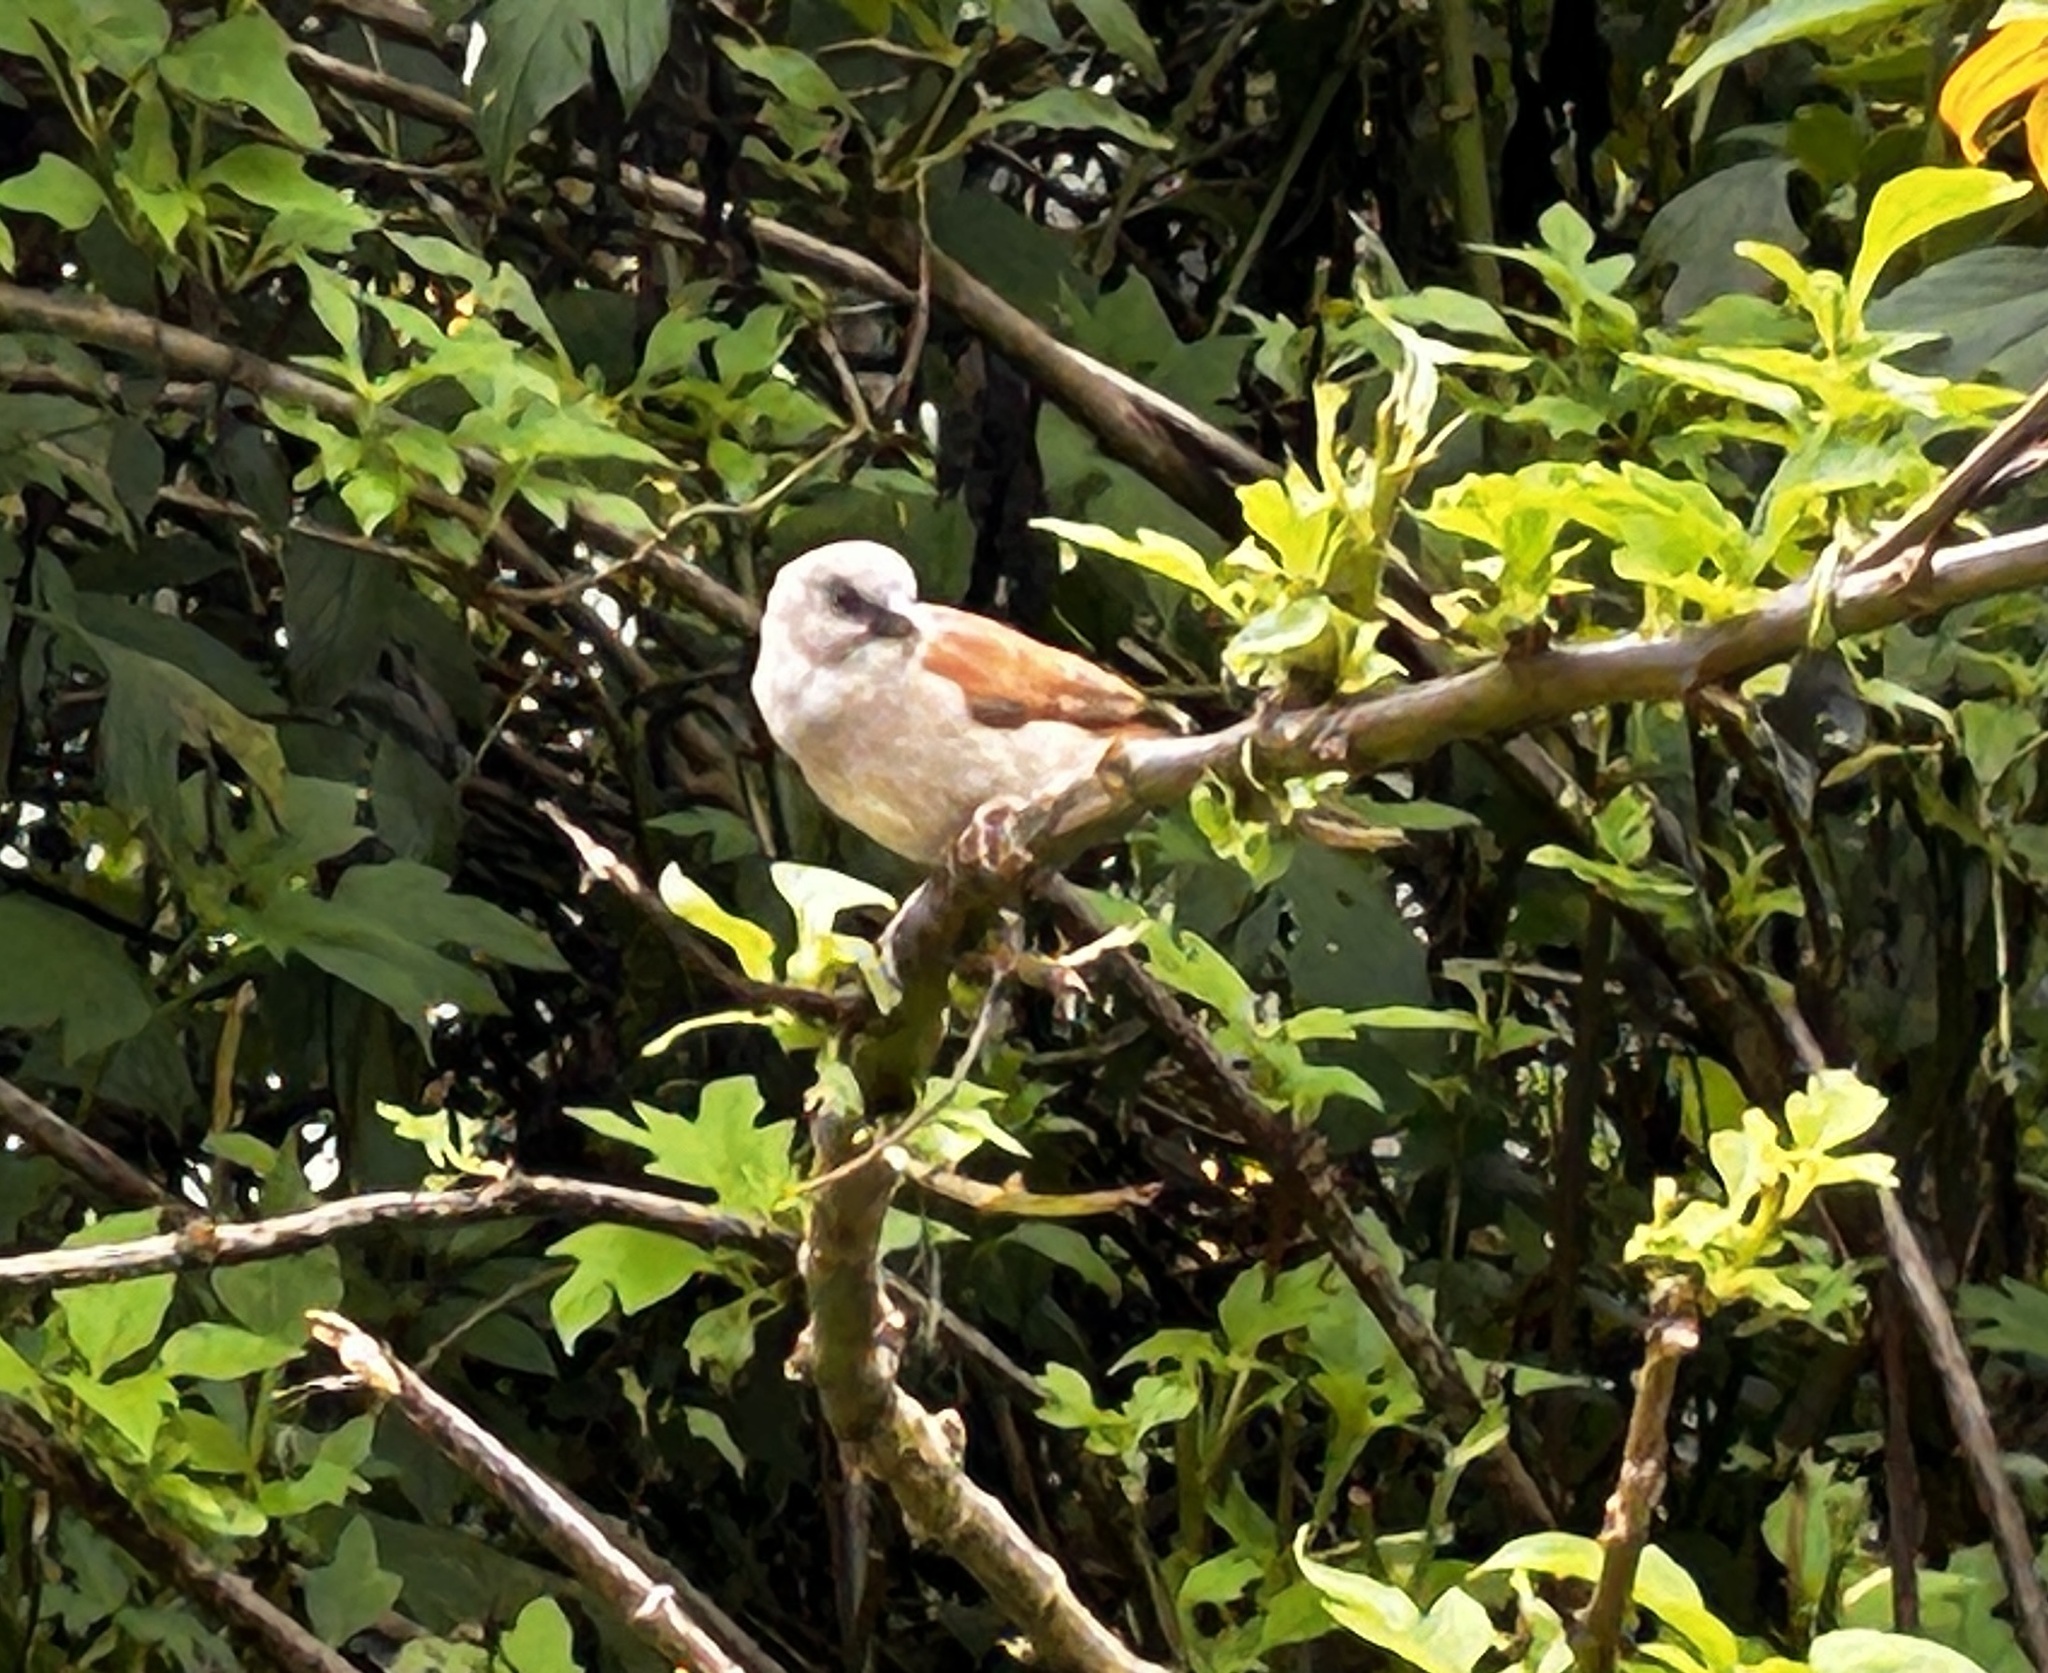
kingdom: Animalia
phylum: Chordata
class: Aves
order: Passeriformes
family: Passeridae
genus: Passer
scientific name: Passer griseus
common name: Northern grey-headed sparrow
